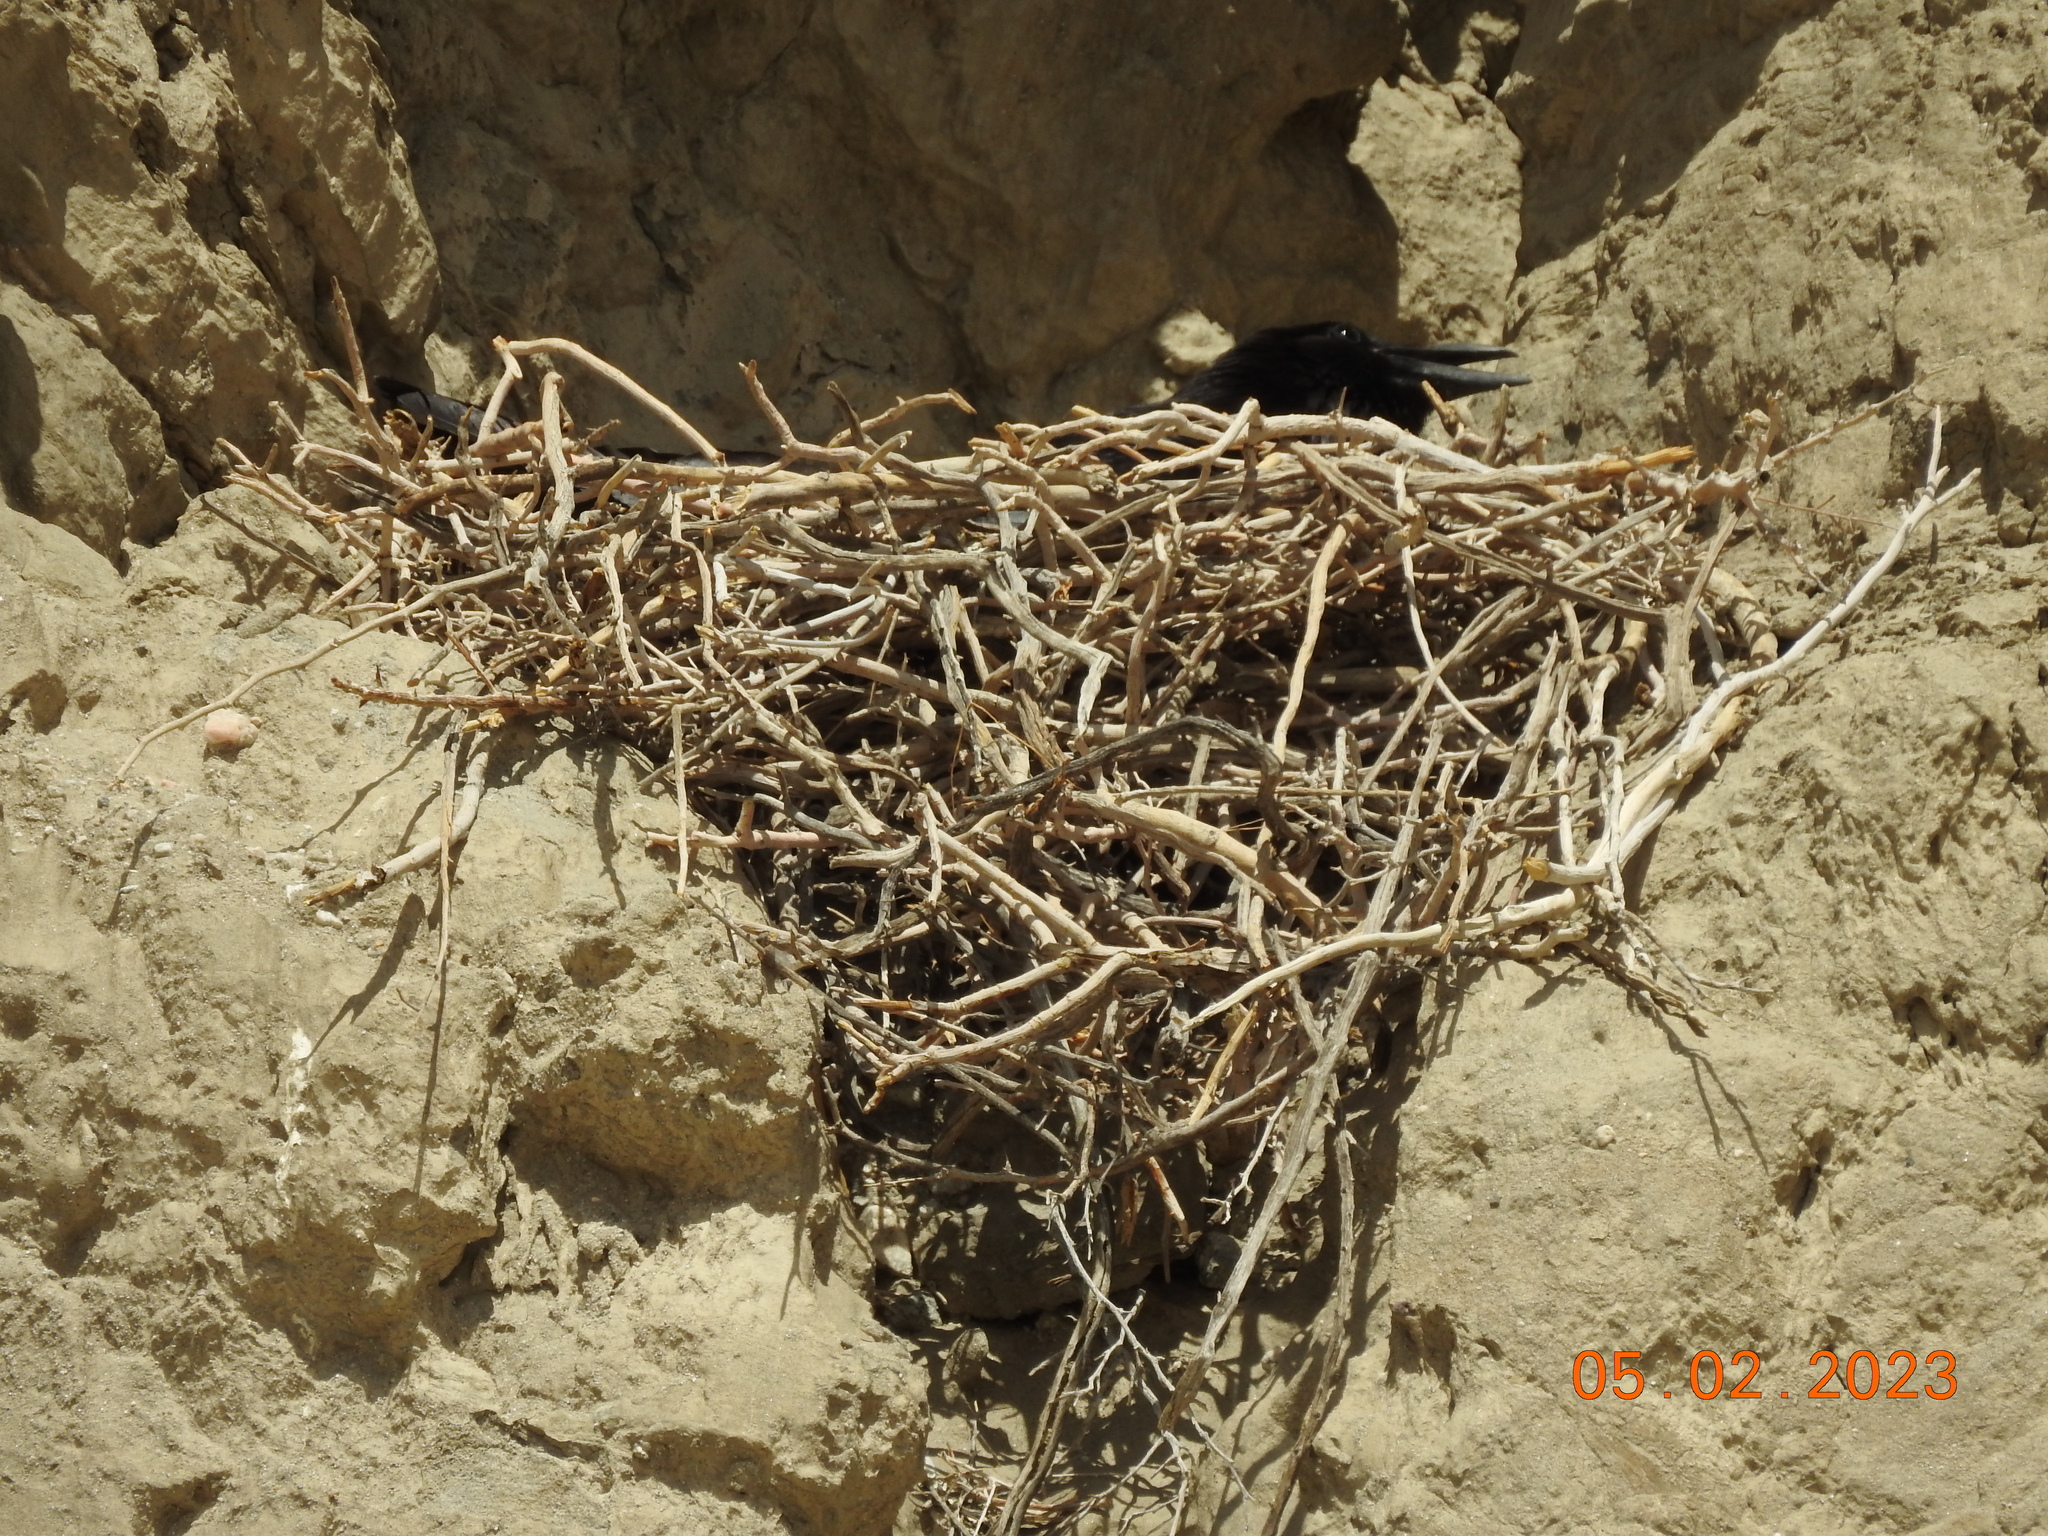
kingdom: Animalia
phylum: Chordata
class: Aves
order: Passeriformes
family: Corvidae
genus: Corvus
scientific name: Corvus corax
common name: Common raven
